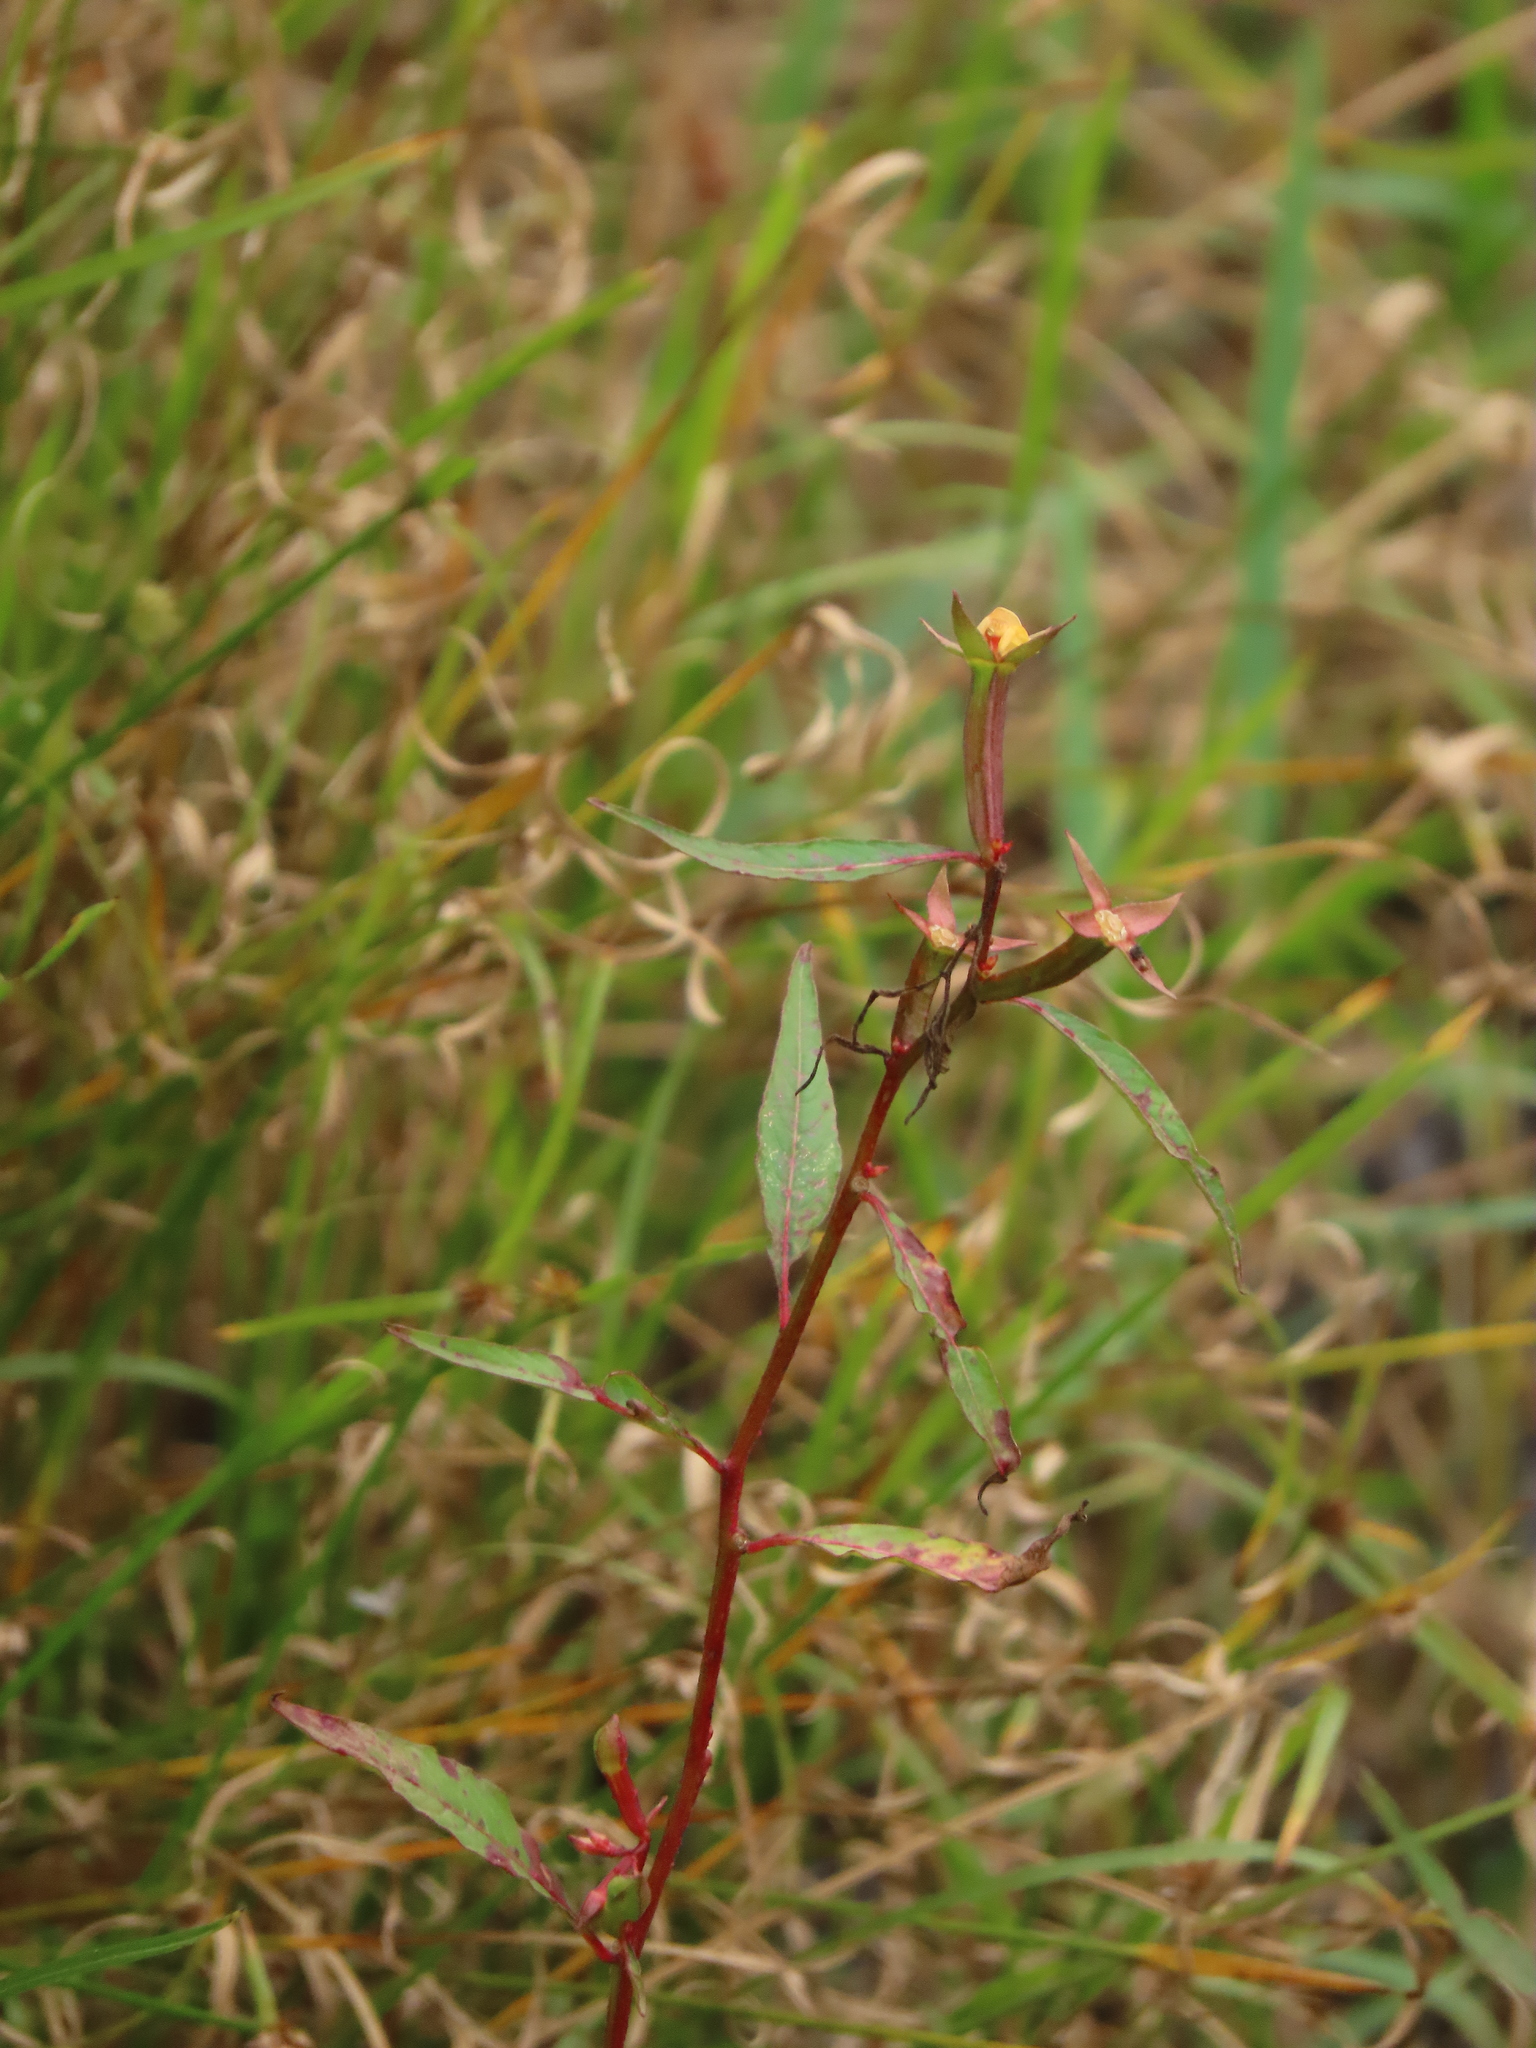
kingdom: Plantae
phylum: Tracheophyta
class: Magnoliopsida
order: Myrtales
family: Onagraceae
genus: Ludwigia
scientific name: Ludwigia erecta
